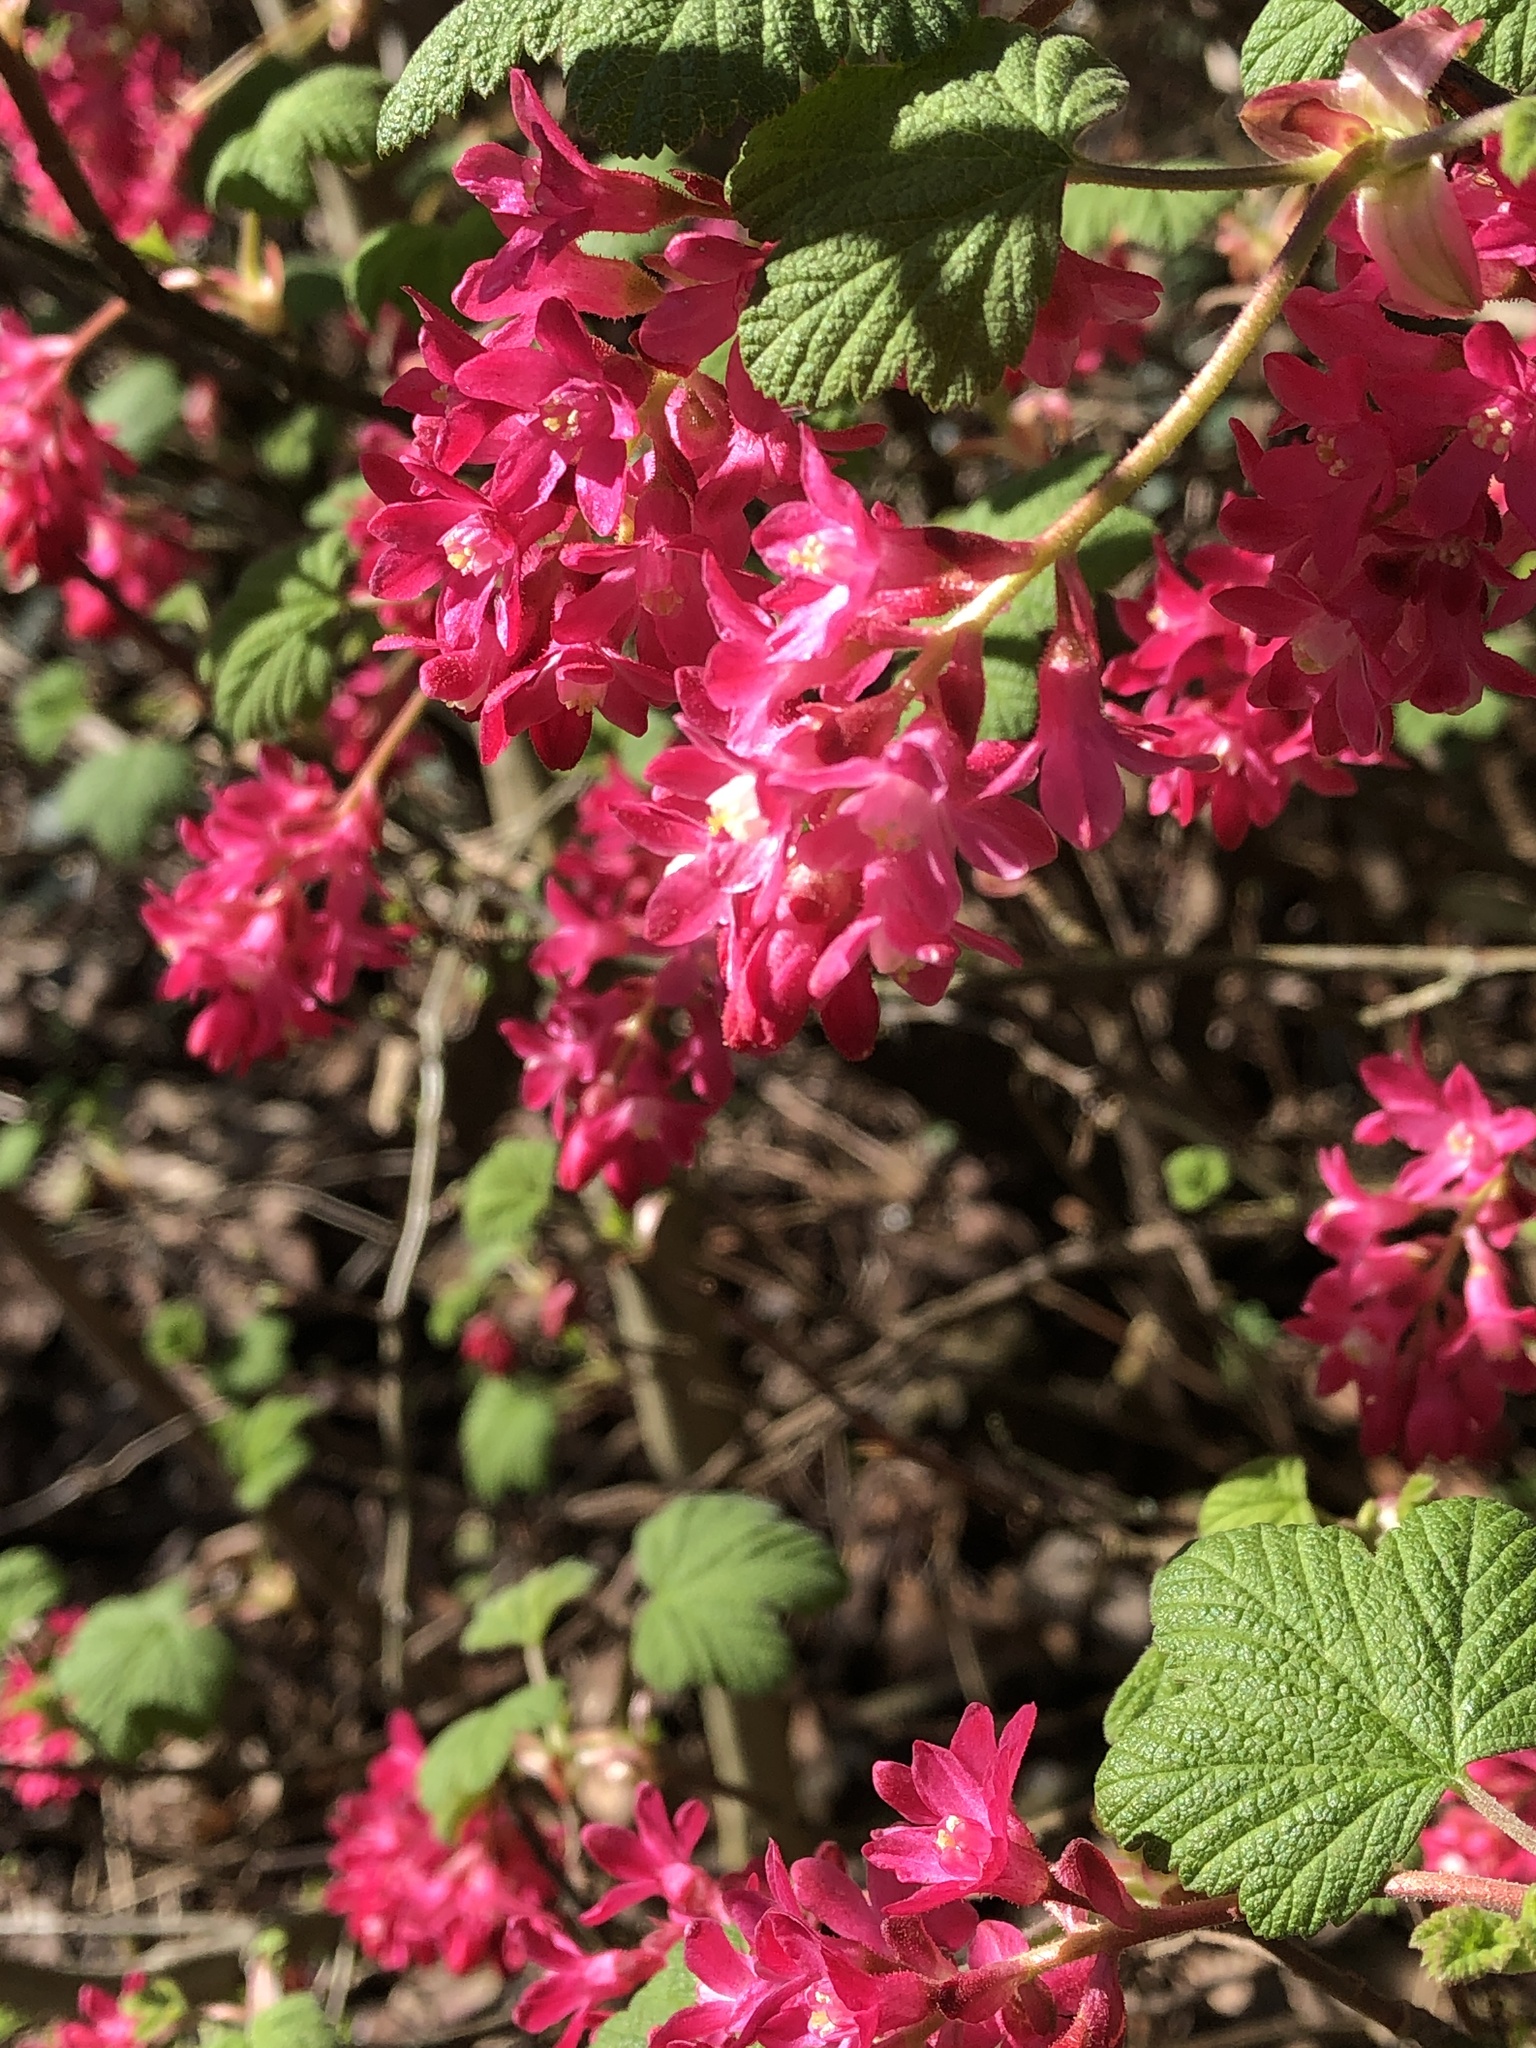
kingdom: Plantae
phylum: Tracheophyta
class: Magnoliopsida
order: Saxifragales
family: Grossulariaceae
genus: Ribes
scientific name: Ribes sanguineum
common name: Flowering currant
